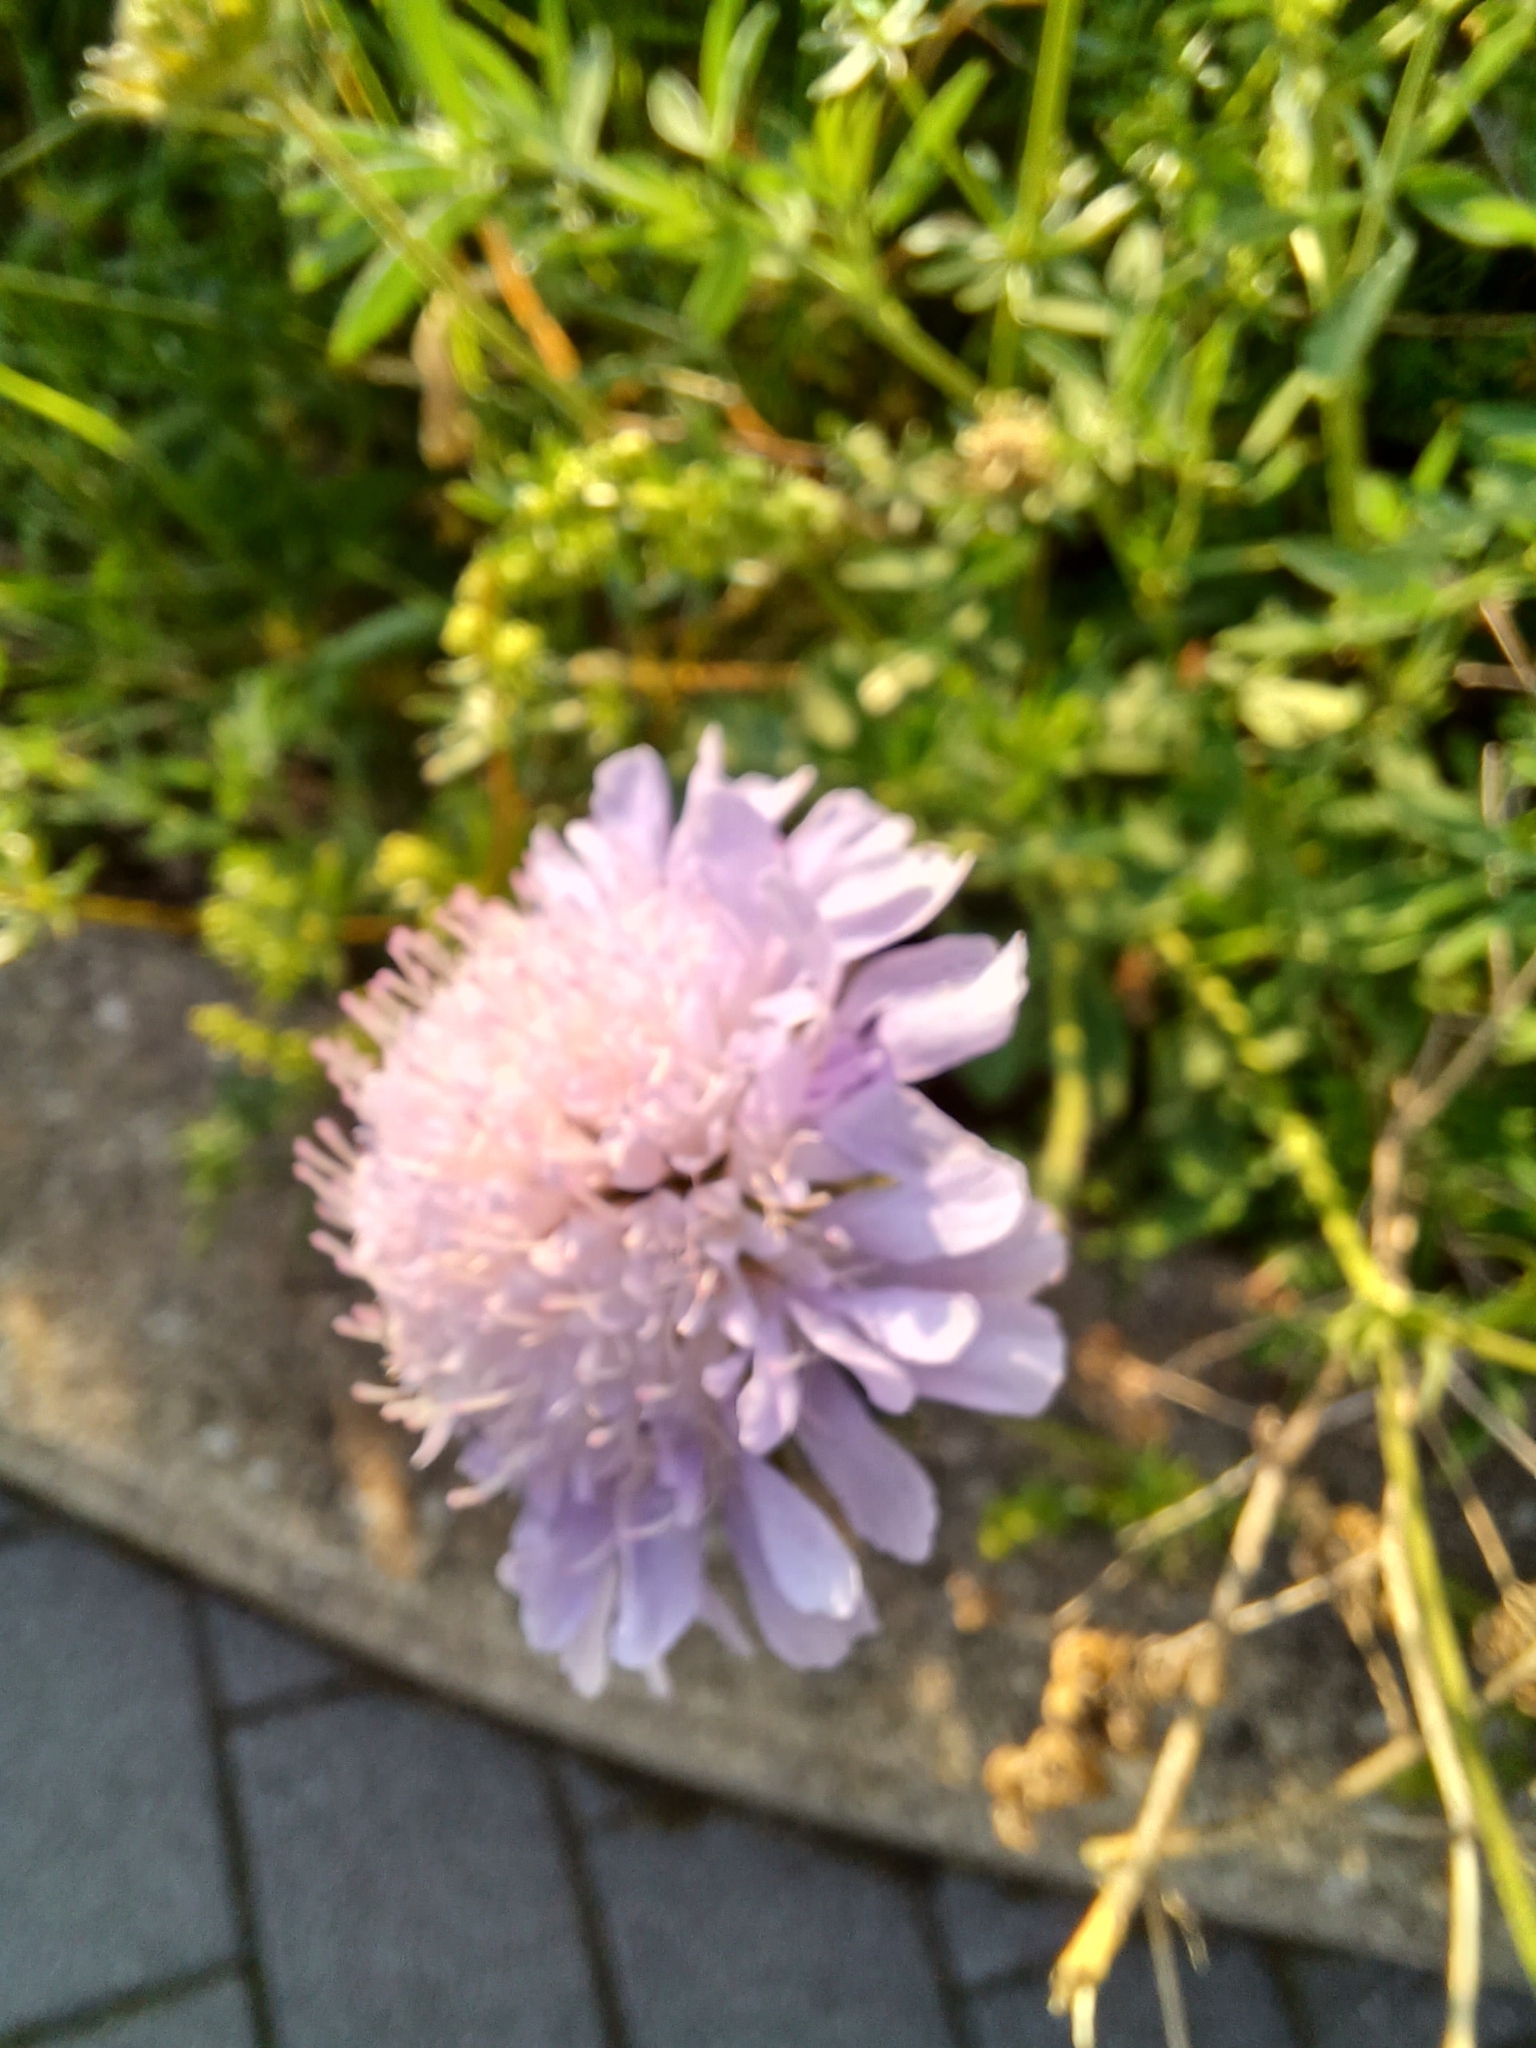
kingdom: Plantae
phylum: Tracheophyta
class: Magnoliopsida
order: Dipsacales
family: Caprifoliaceae
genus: Knautia
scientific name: Knautia arvensis
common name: Field scabiosa
